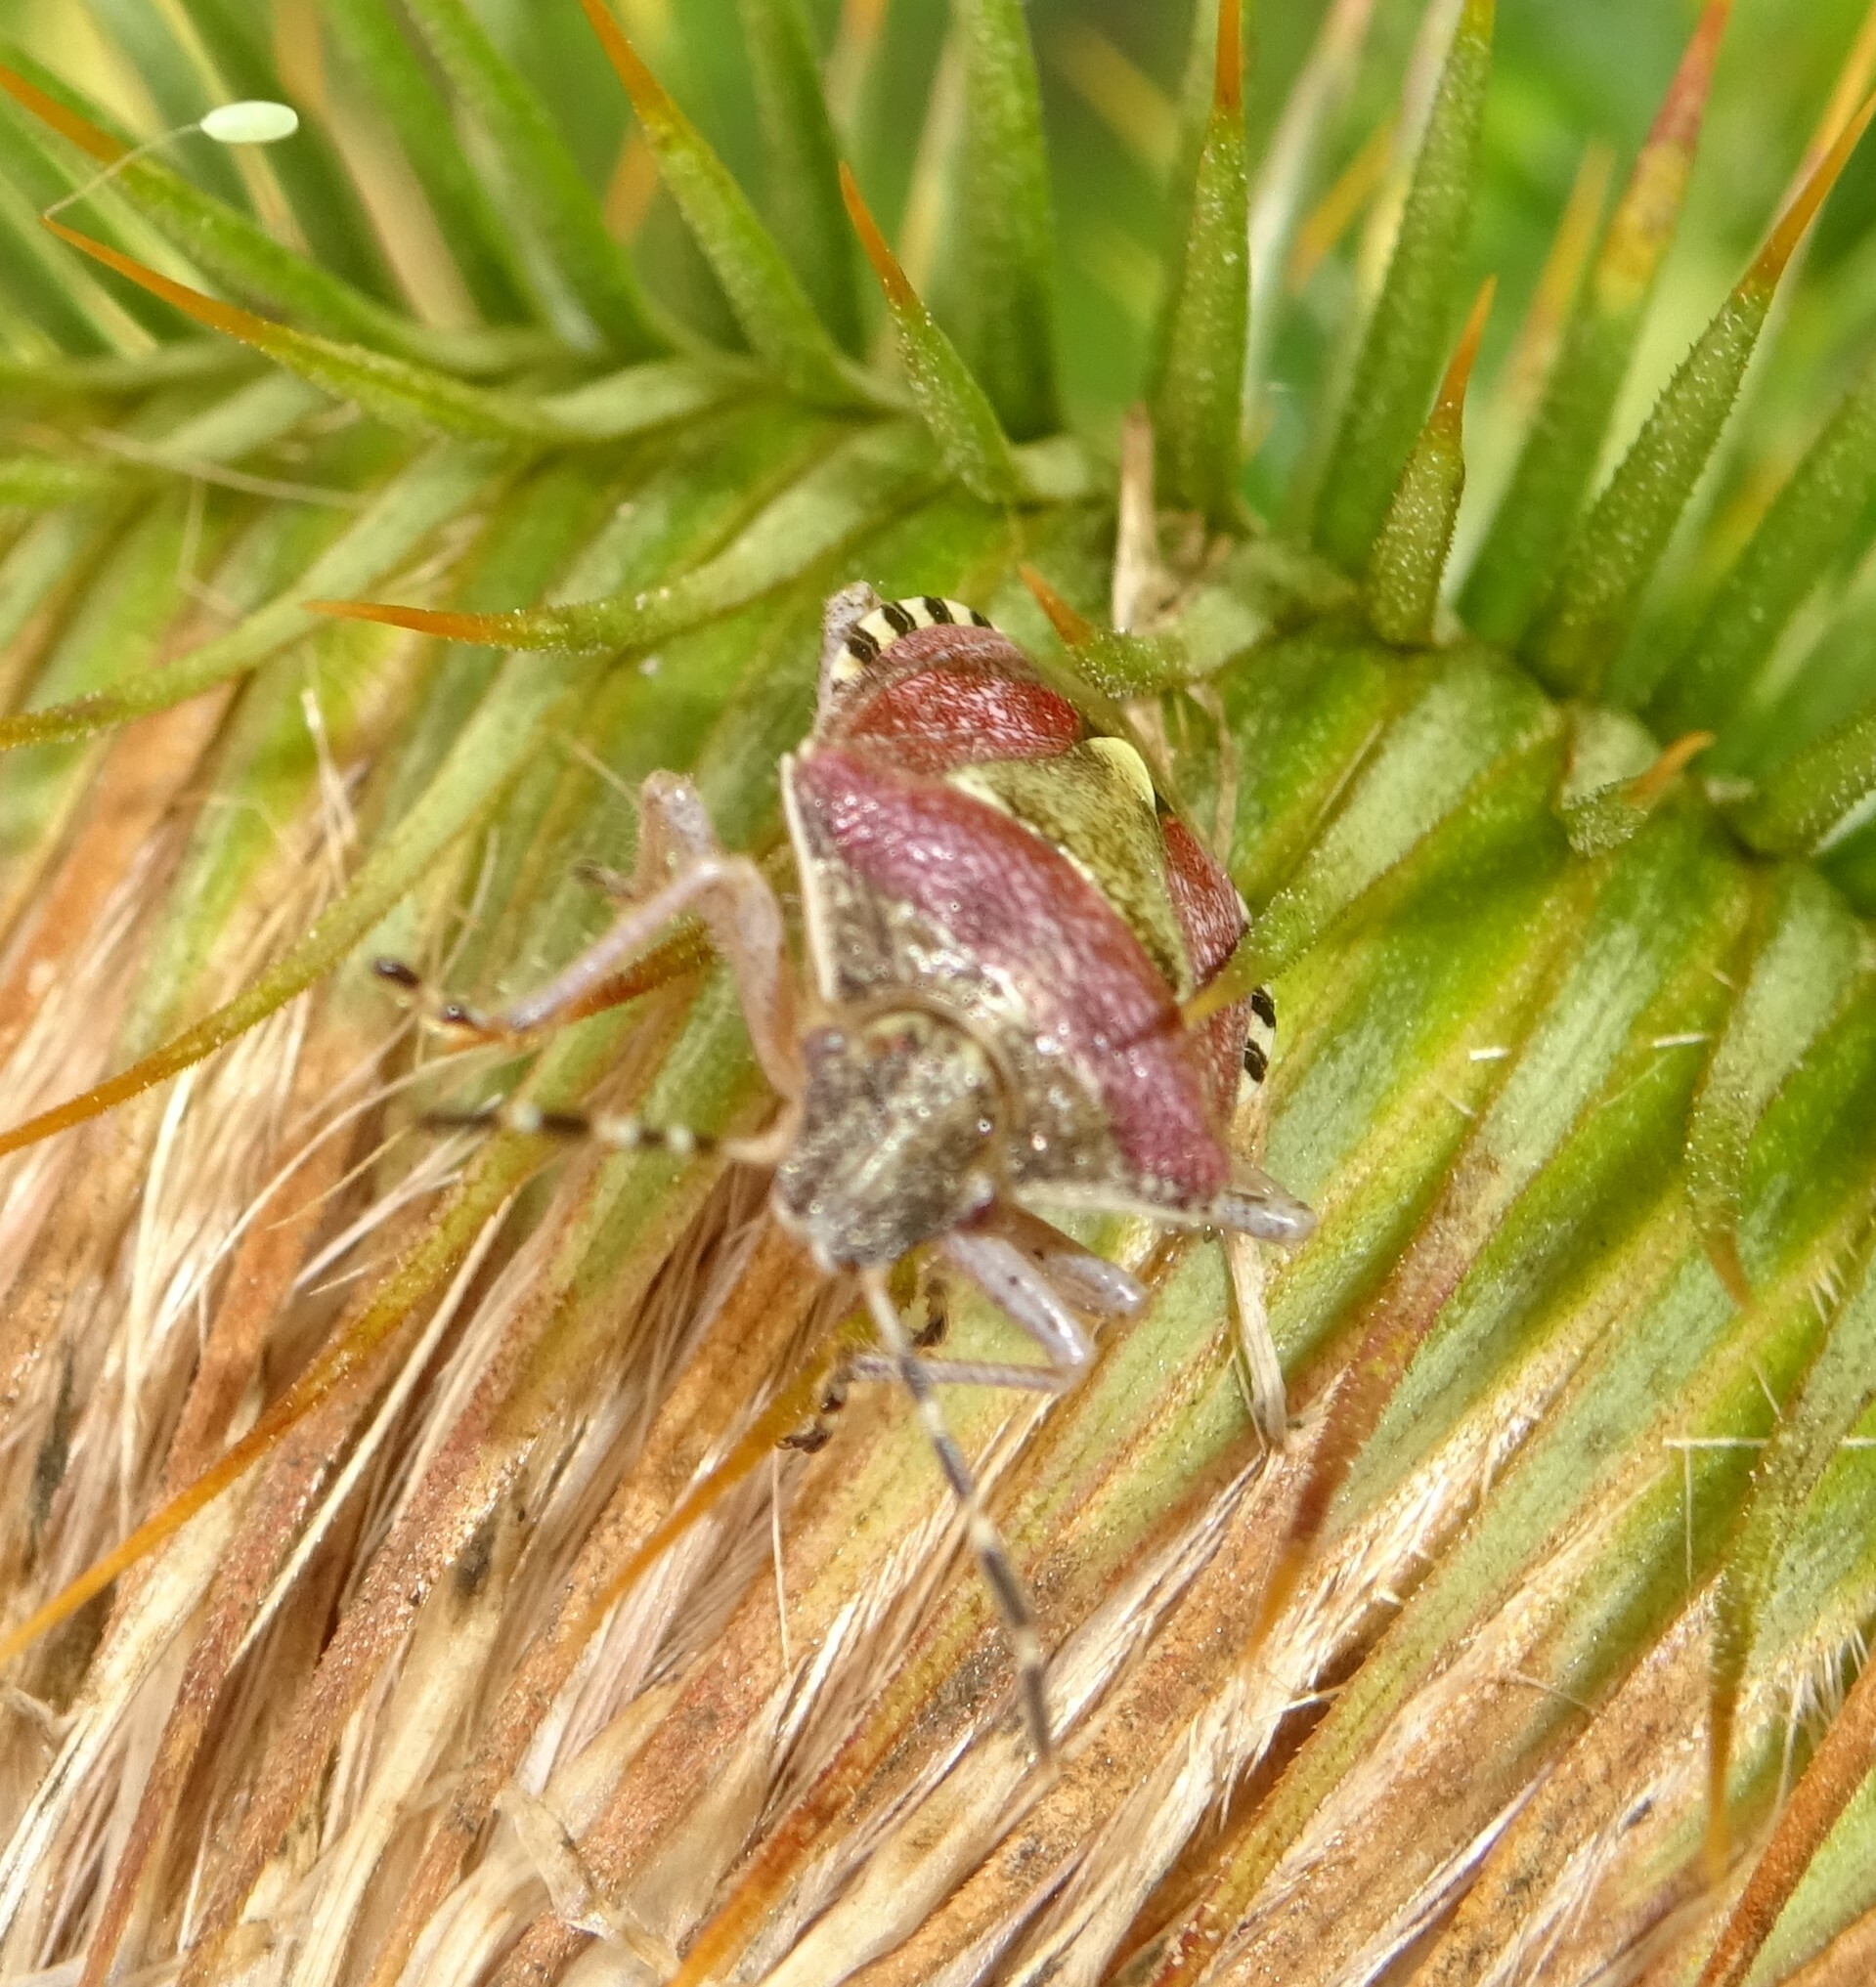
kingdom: Animalia
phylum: Arthropoda
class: Insecta
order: Hemiptera
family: Pentatomidae
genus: Dolycoris
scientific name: Dolycoris baccarum
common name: Sloe bug
